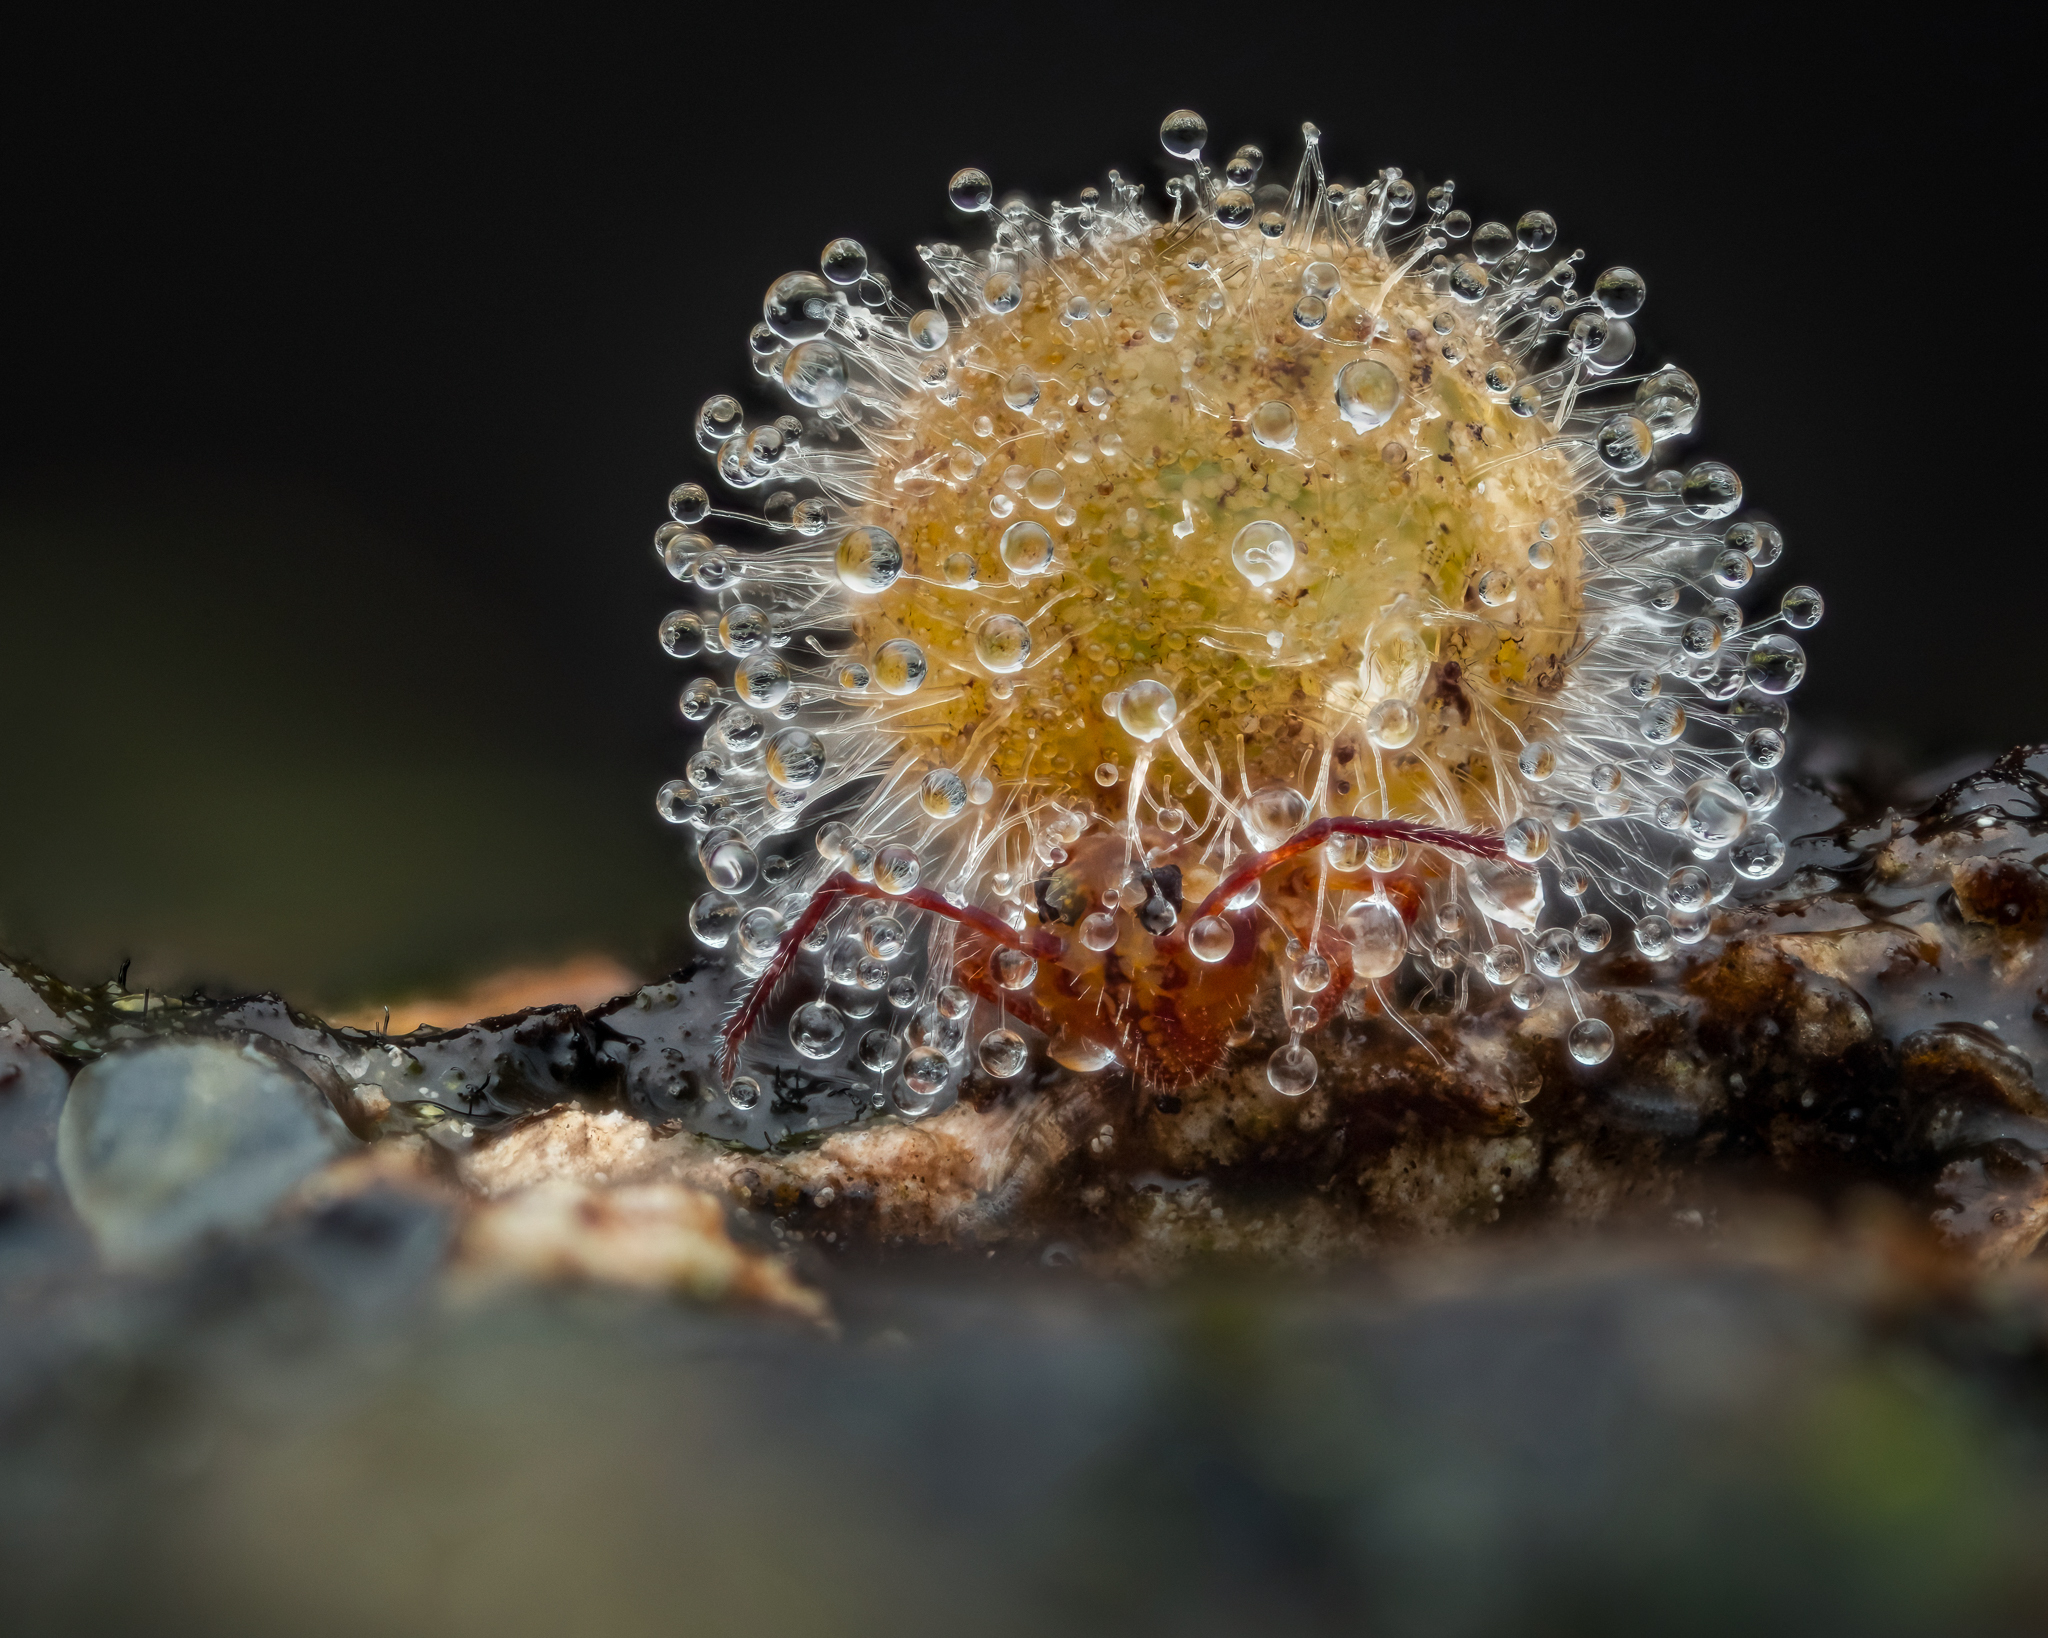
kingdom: Fungi
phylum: Entomophthoromycota
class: Entomophthoromycetes
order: Entomophthorales
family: Entomophthoraceae
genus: Pandora
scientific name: Pandora batallata
